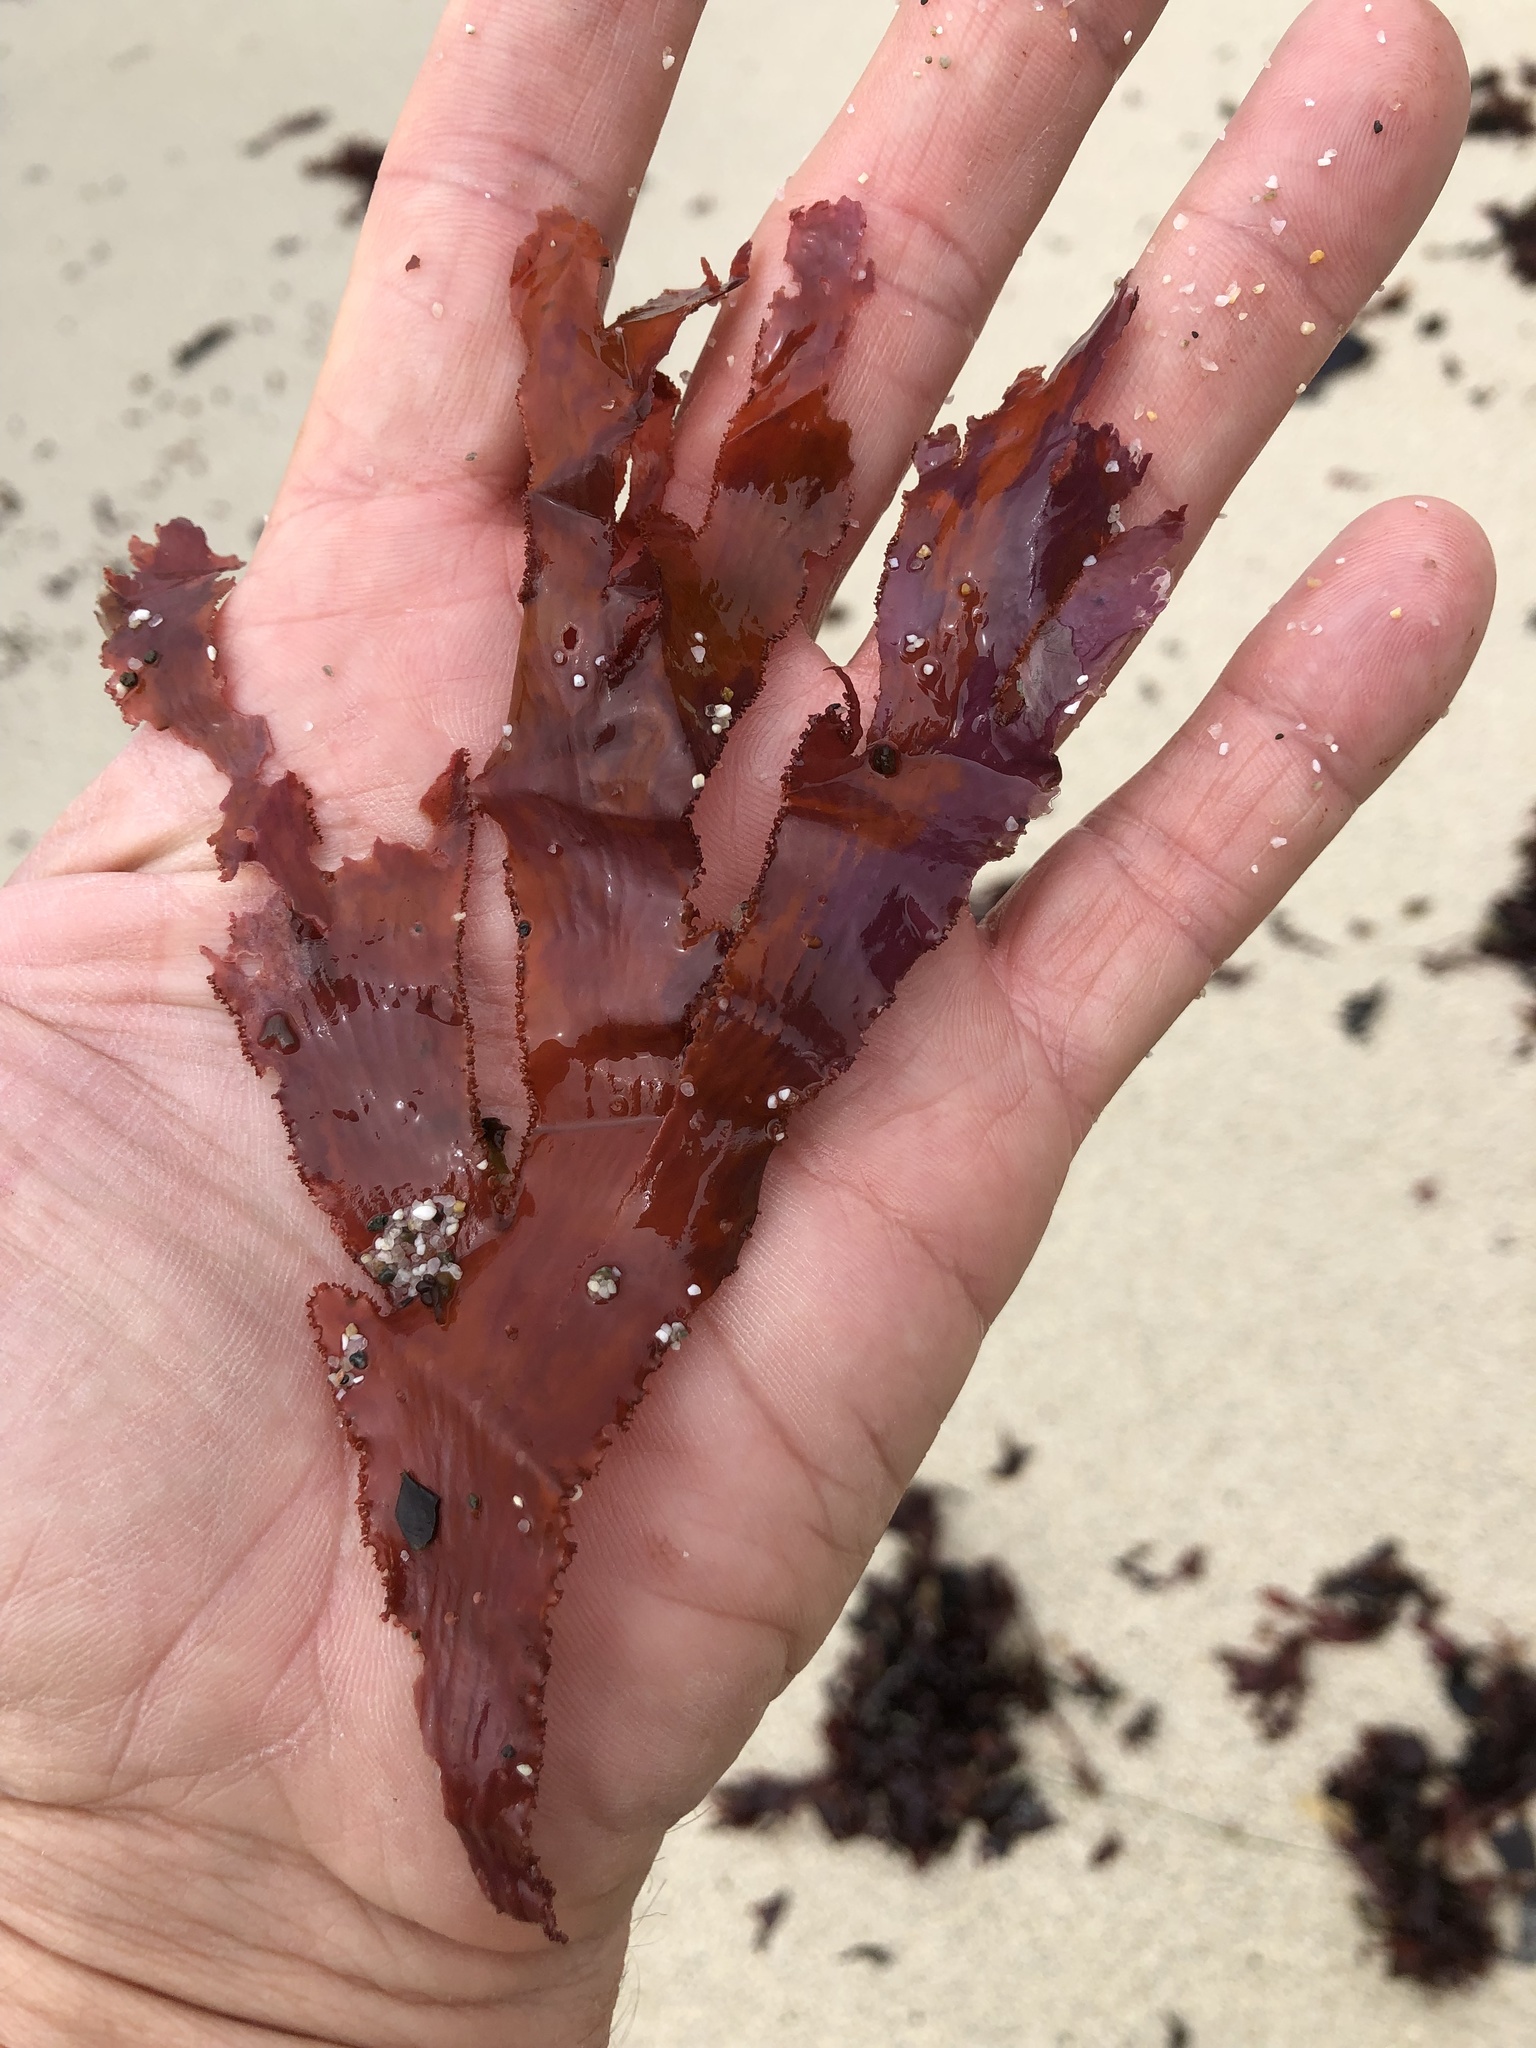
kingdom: Plantae
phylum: Rhodophyta
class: Florideophyceae
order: Ceramiales
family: Delesseriaceae
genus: Cryptopleura
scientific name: Cryptopleura ruprechtiana
